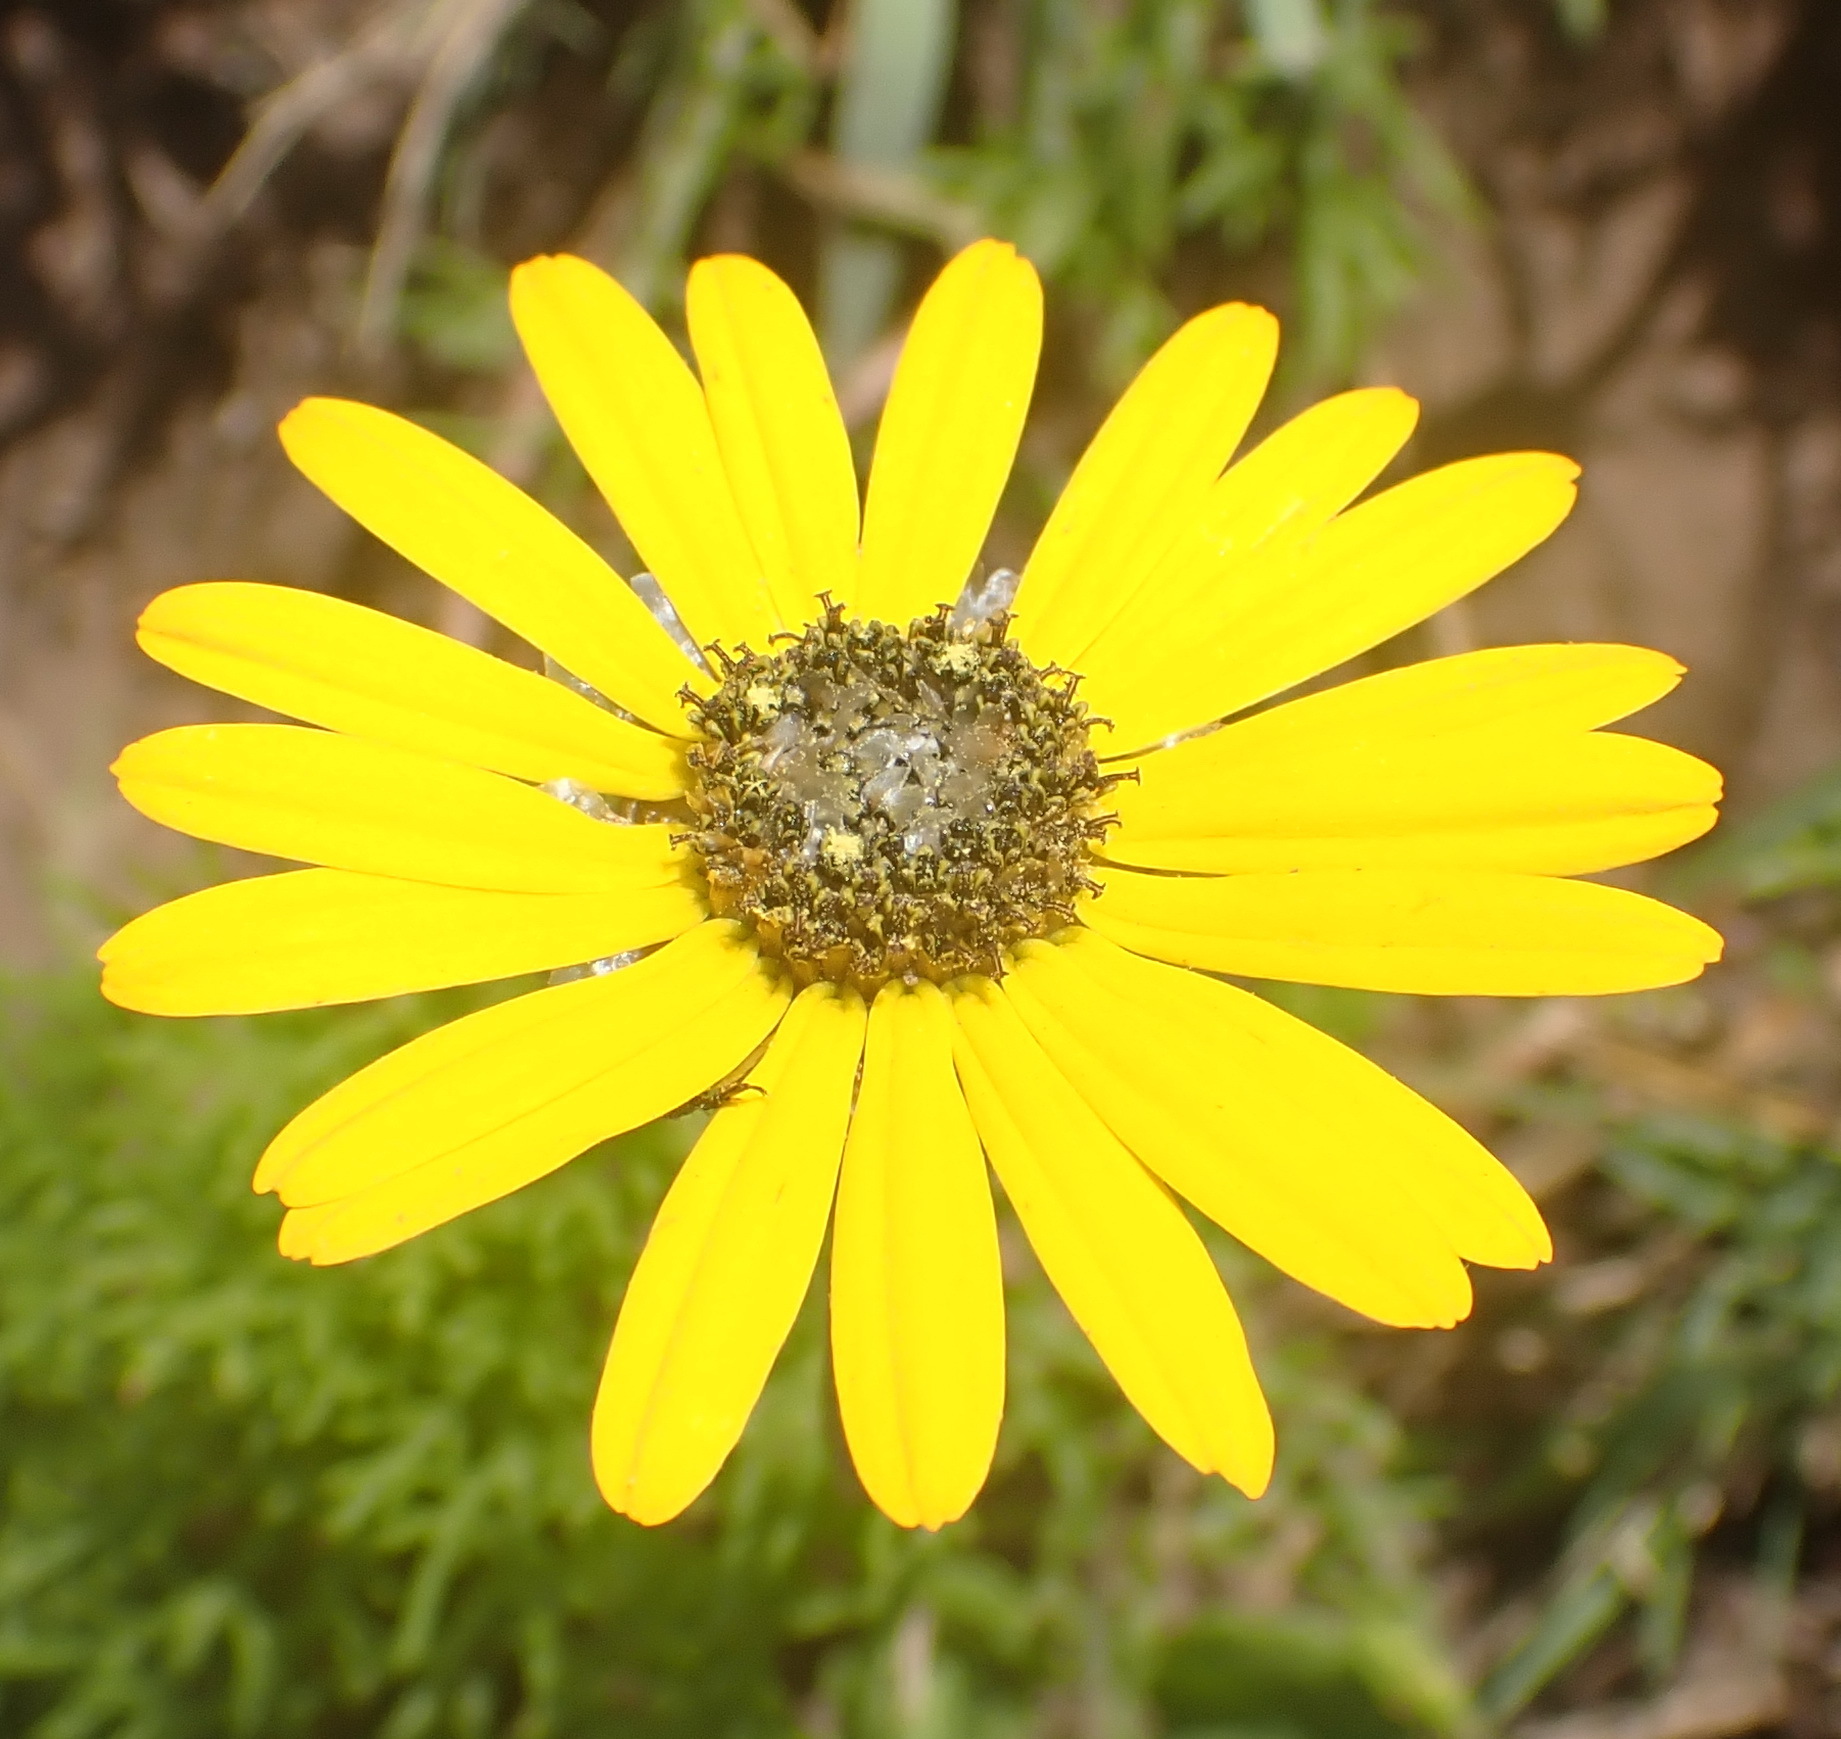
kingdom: Plantae
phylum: Tracheophyta
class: Magnoliopsida
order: Asterales
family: Asteraceae
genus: Ursinia
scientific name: Ursinia chrysanthemoides
